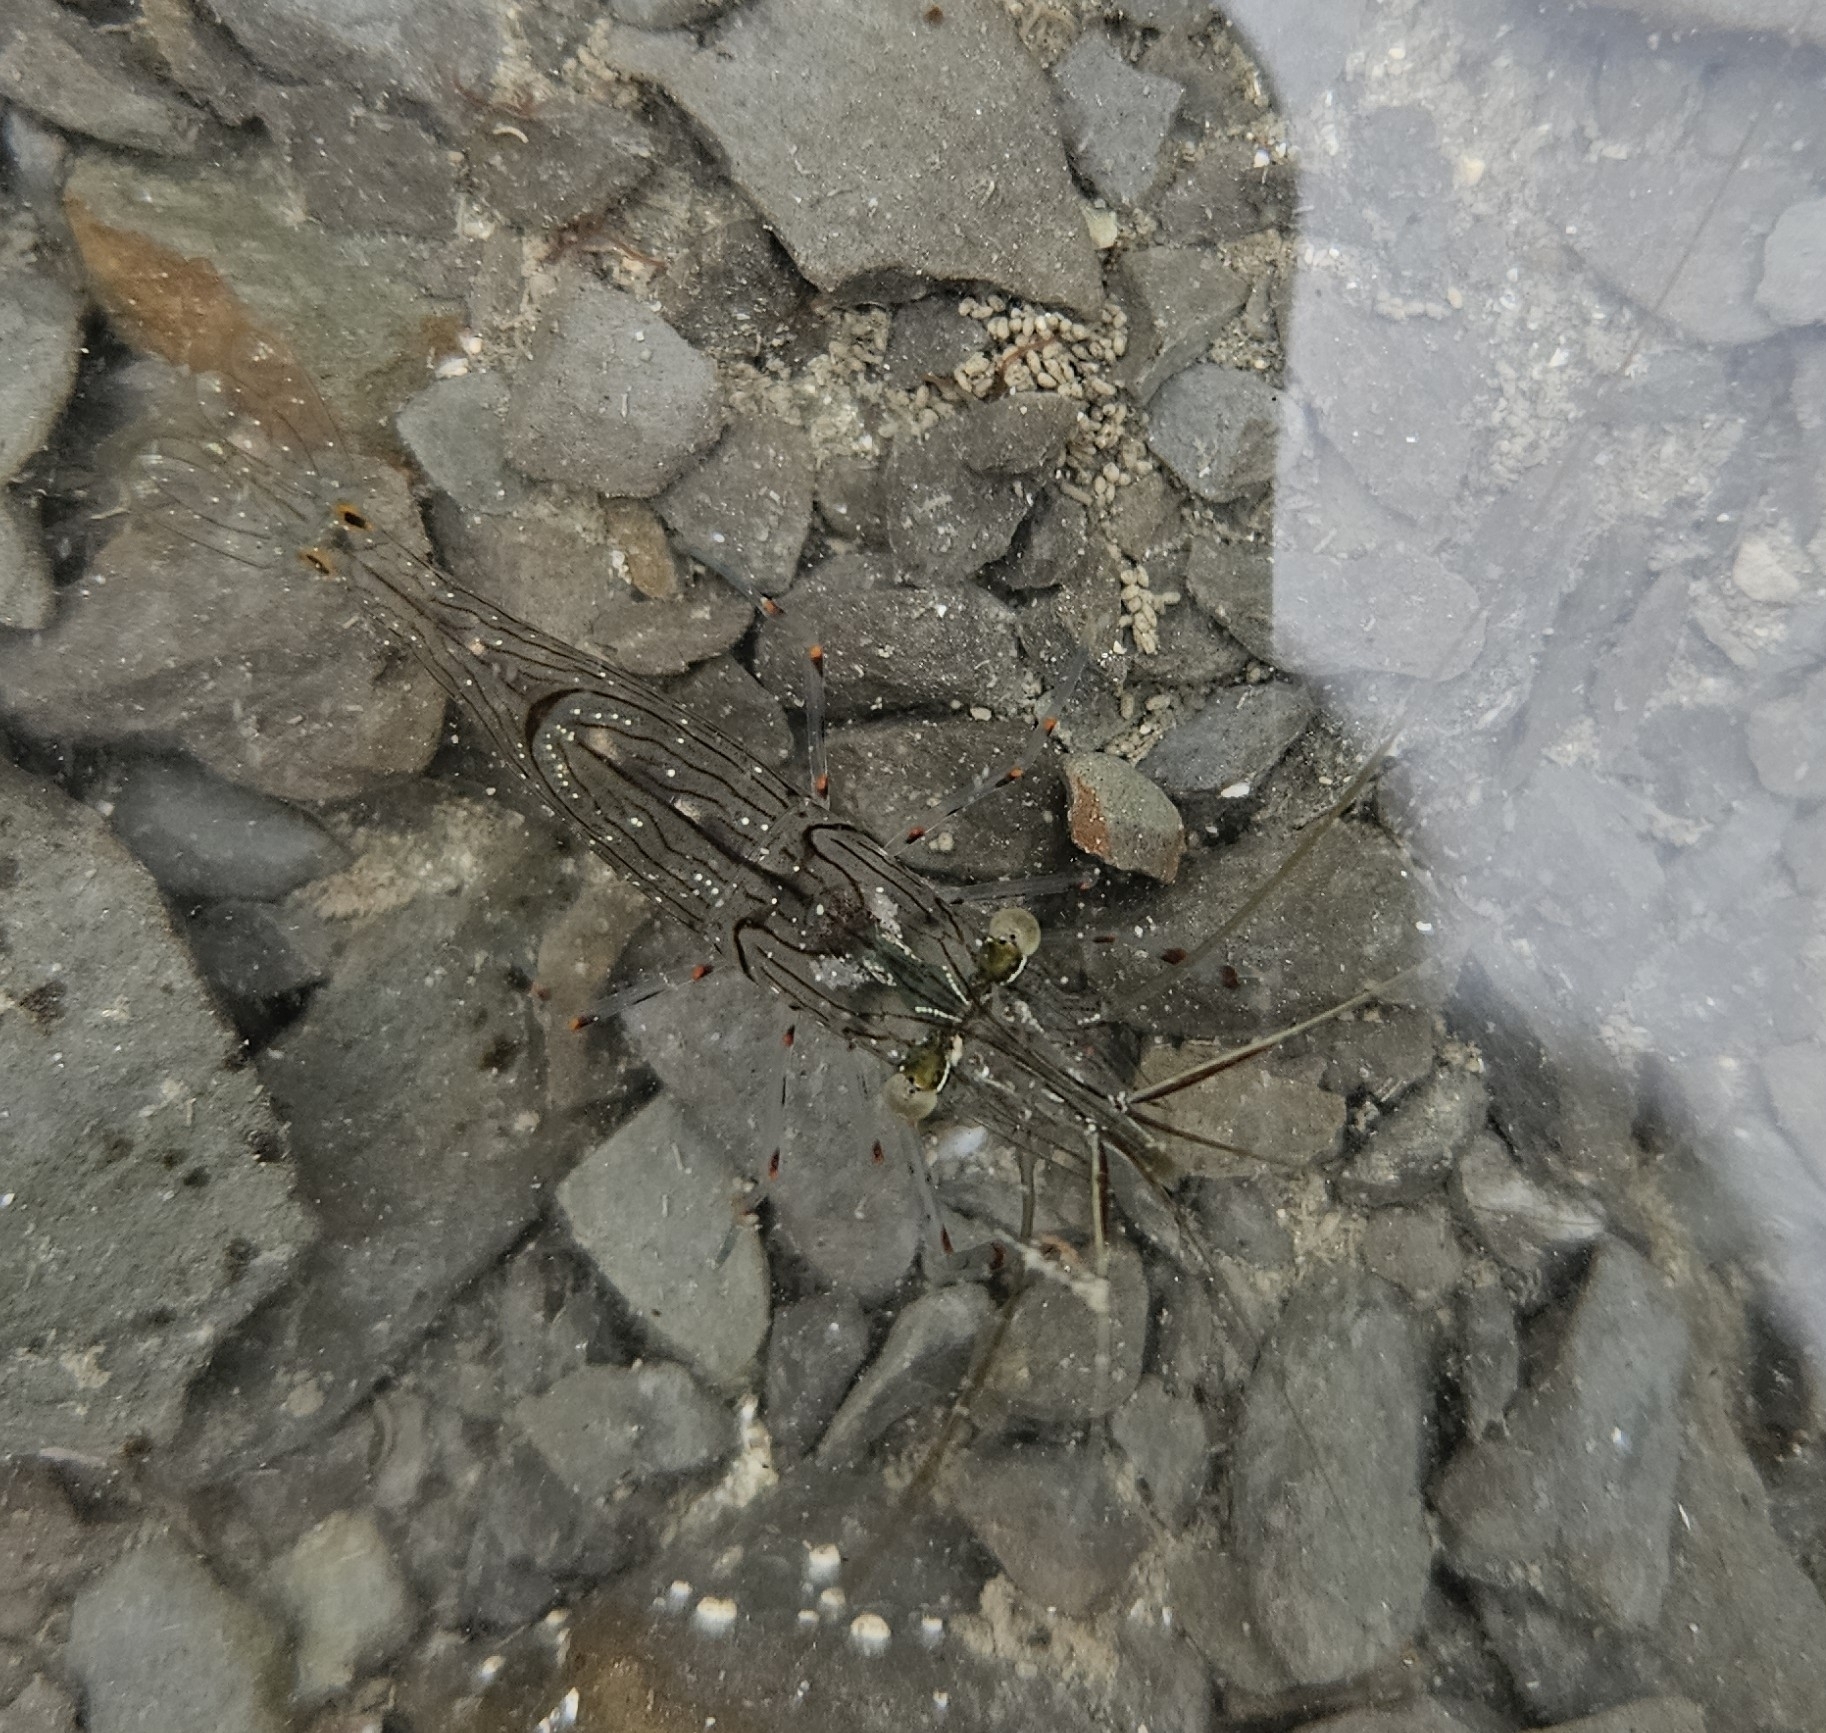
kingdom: Animalia
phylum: Arthropoda
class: Malacostraca
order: Decapoda
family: Palaemonidae
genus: Palaemon
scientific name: Palaemon affinis
